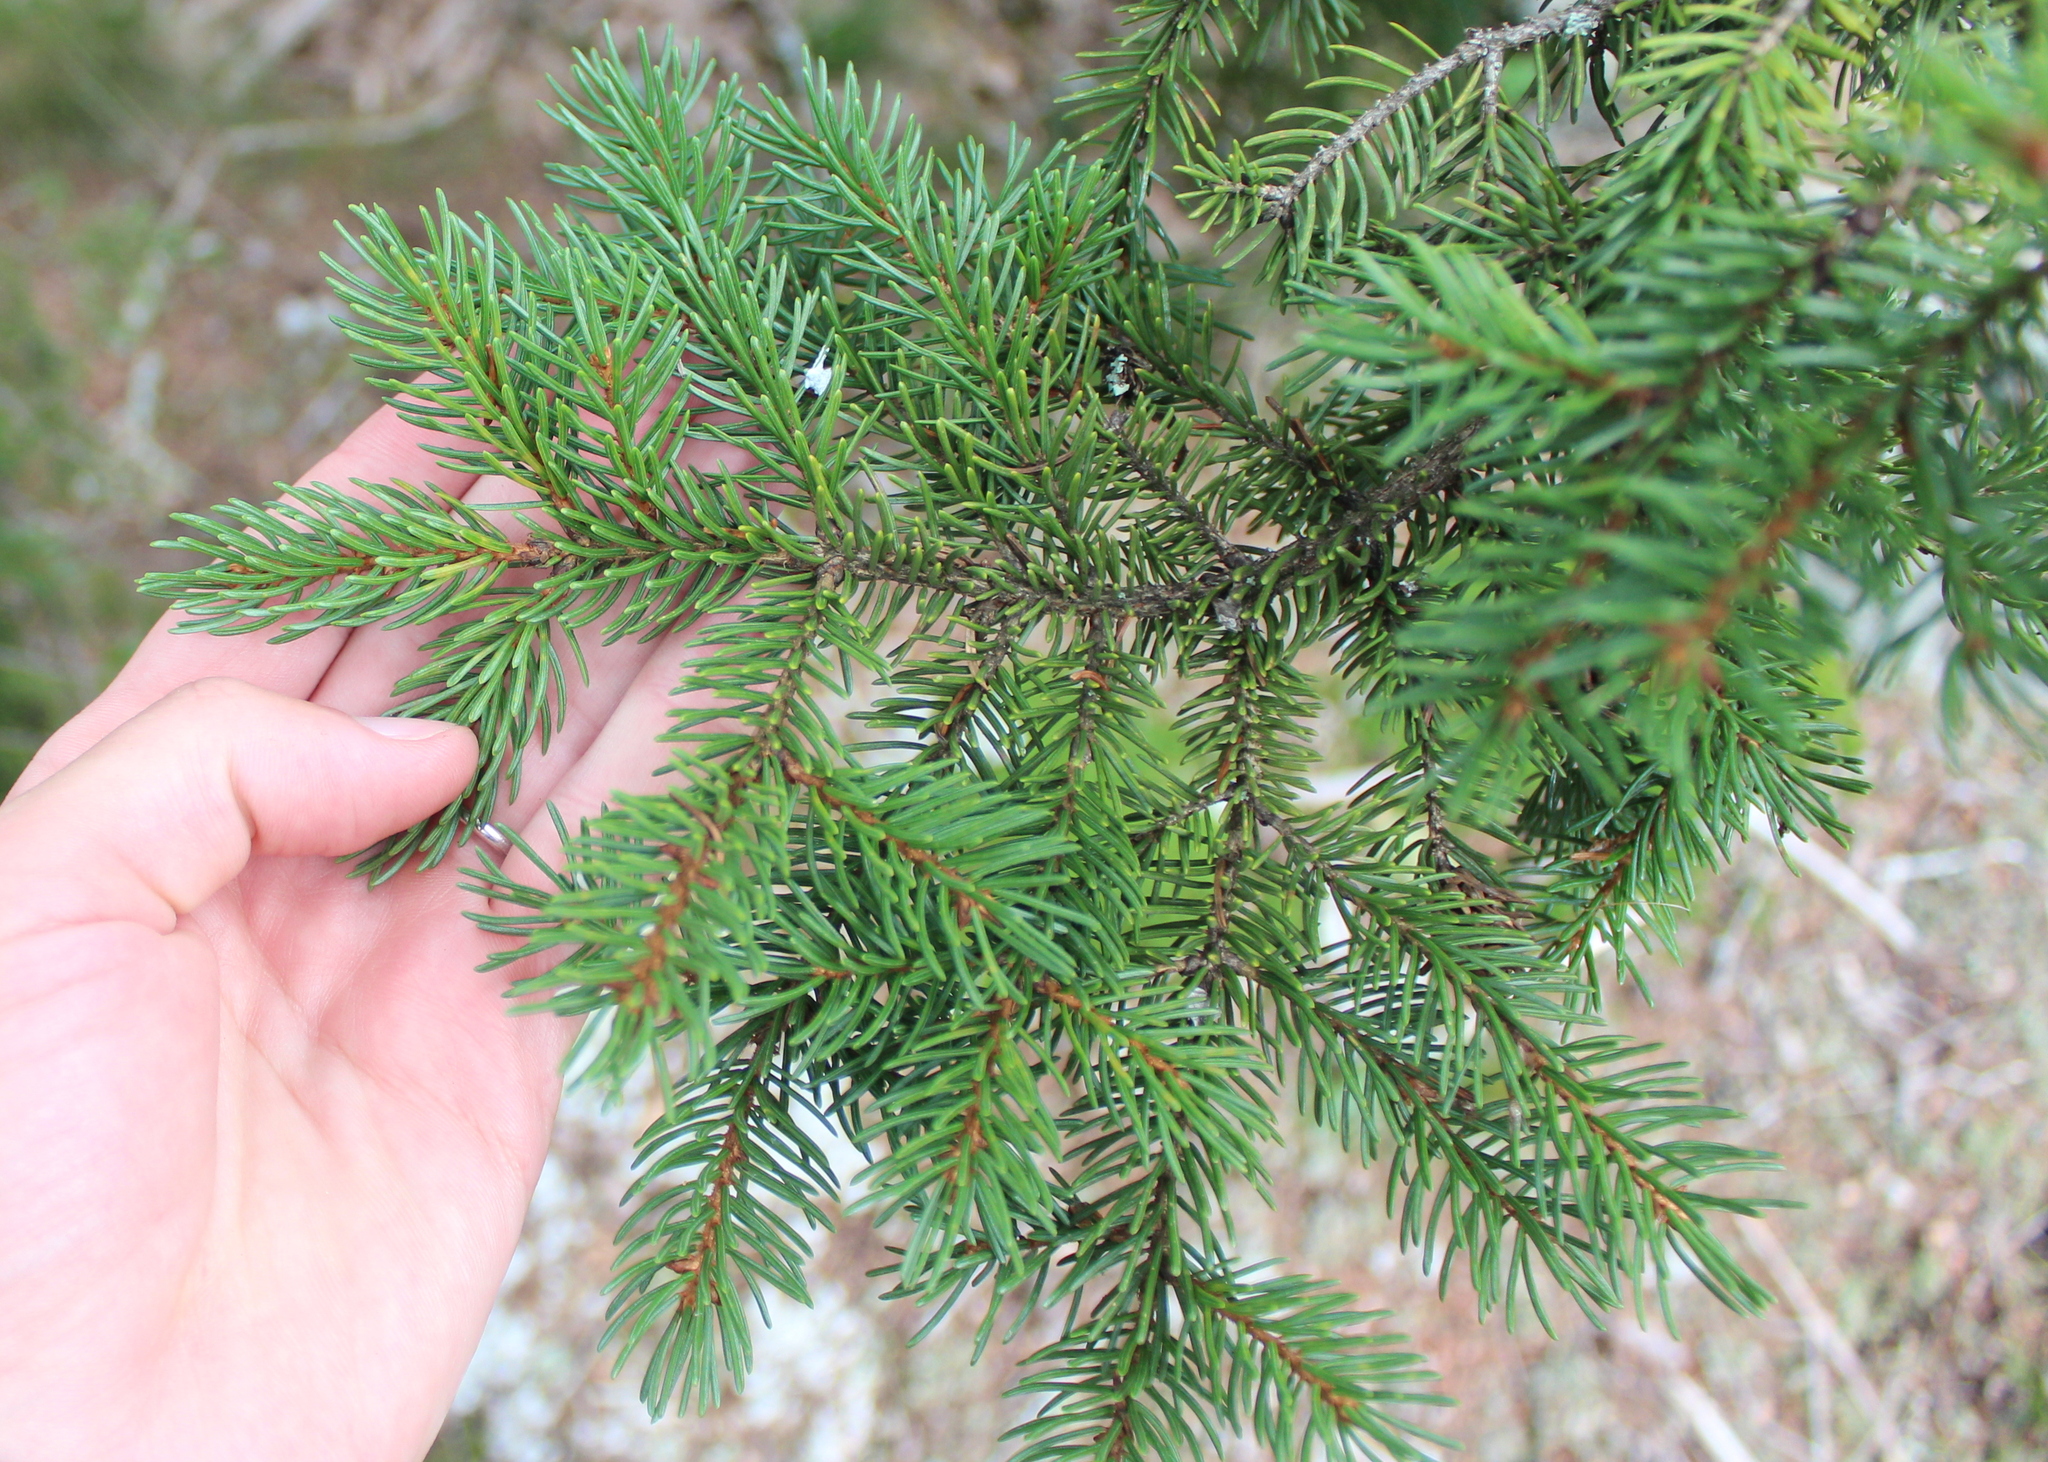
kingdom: Plantae
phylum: Tracheophyta
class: Pinopsida
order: Pinales
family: Pinaceae
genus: Picea
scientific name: Picea rubens
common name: Red spruce
